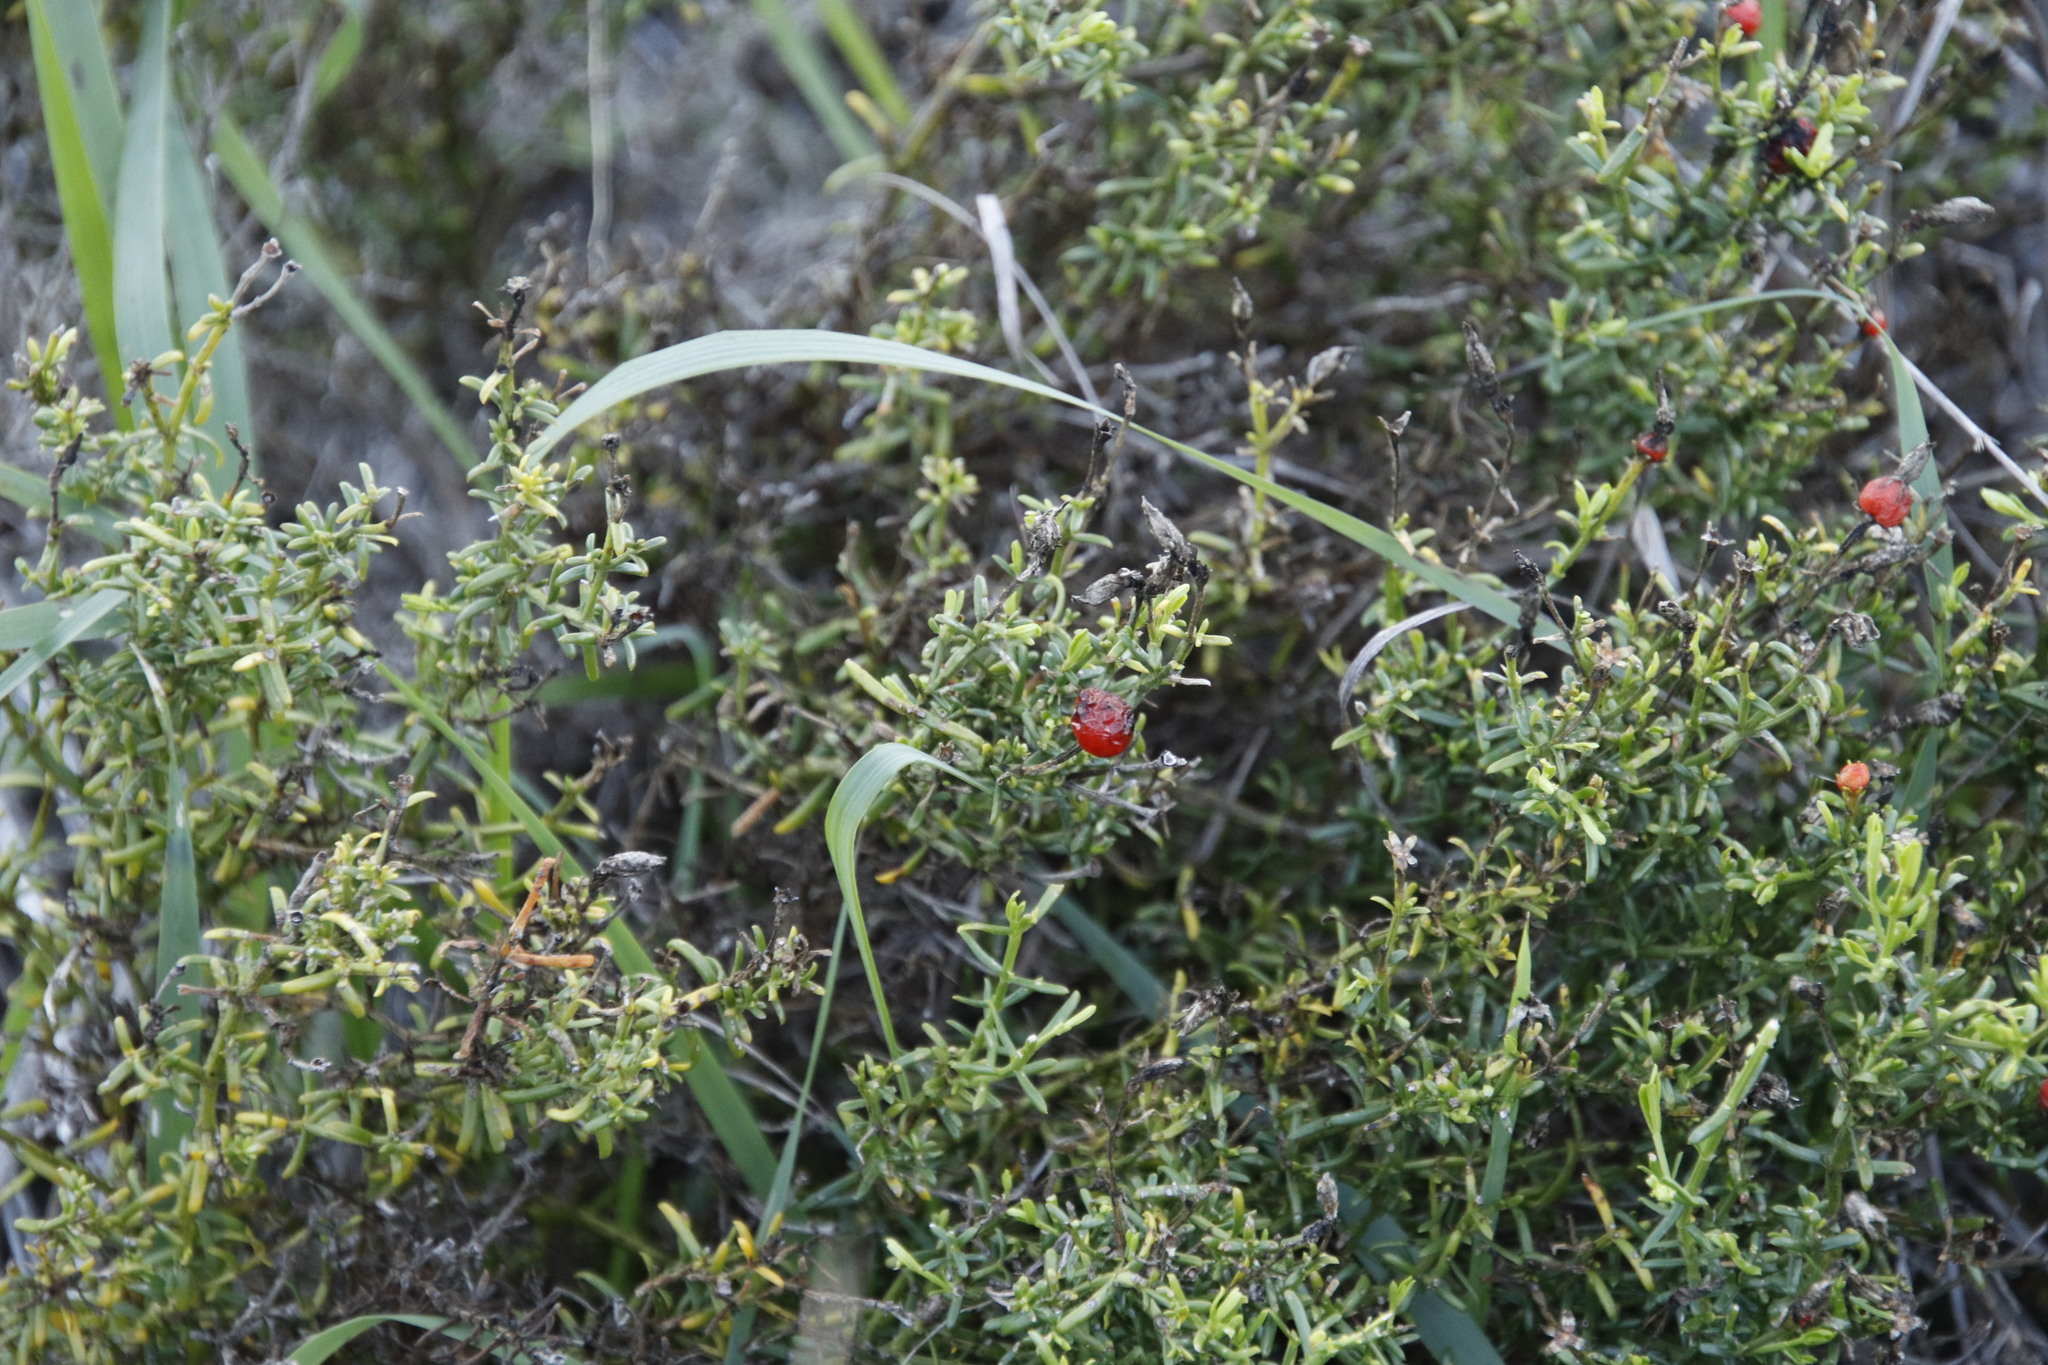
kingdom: Plantae
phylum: Tracheophyta
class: Magnoliopsida
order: Gentianales
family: Gentianaceae
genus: Chironia
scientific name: Chironia baccifera
